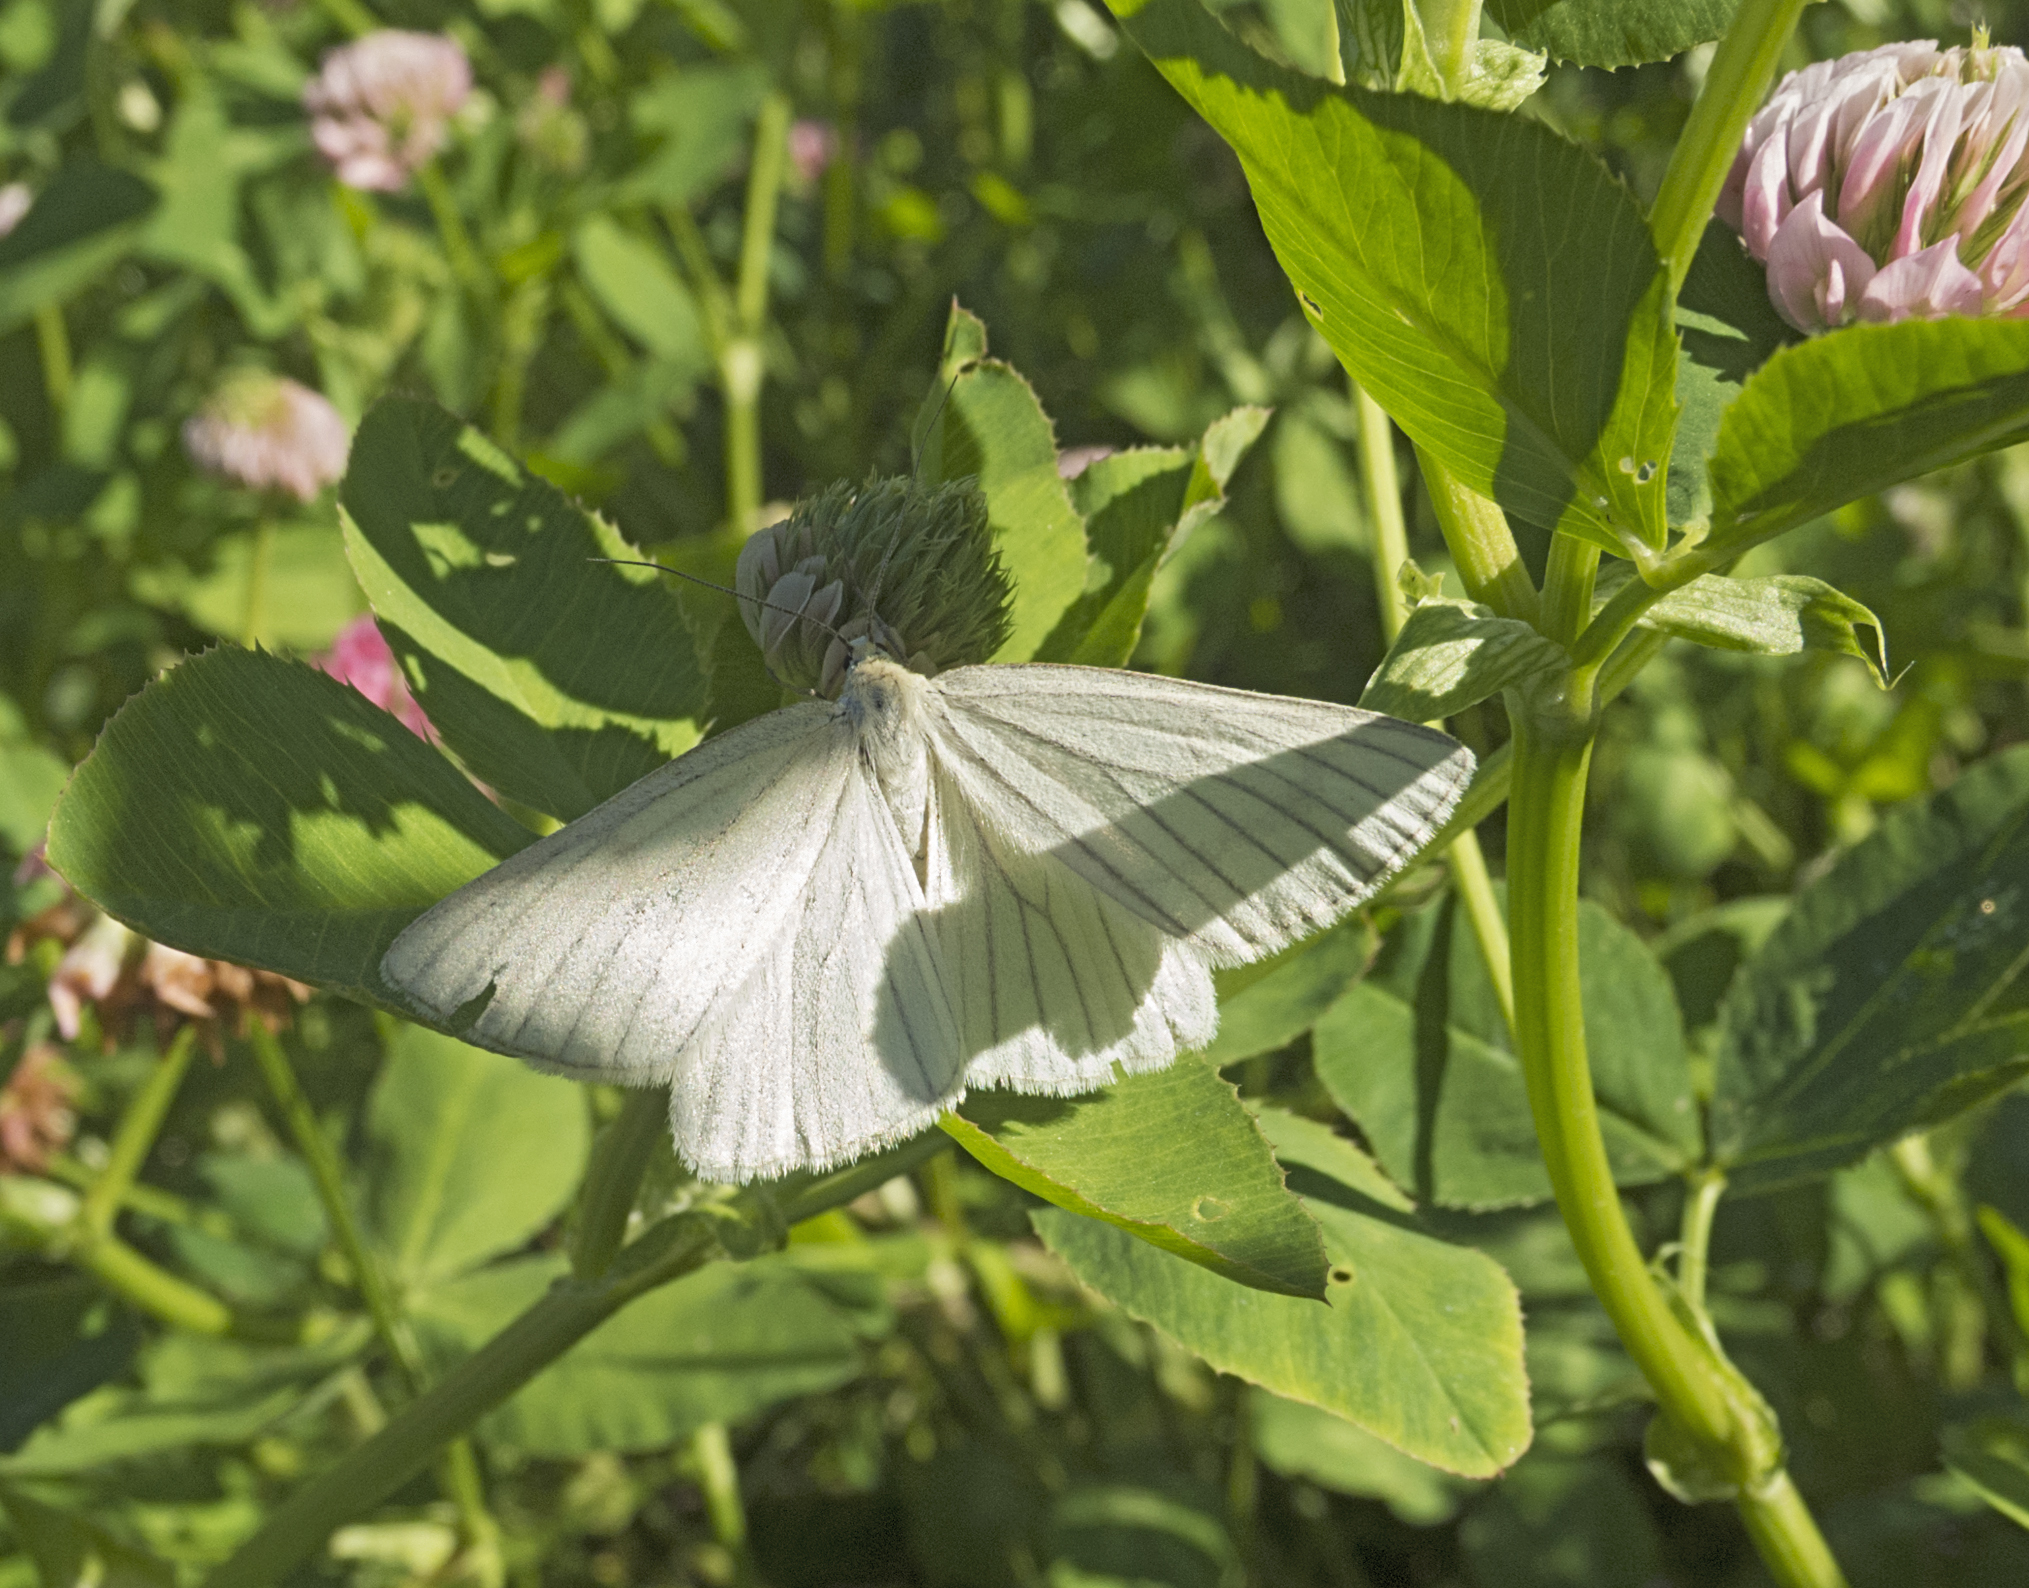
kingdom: Animalia
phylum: Arthropoda
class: Insecta
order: Lepidoptera
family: Geometridae
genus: Siona
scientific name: Siona lineata
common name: Black-veined moth
